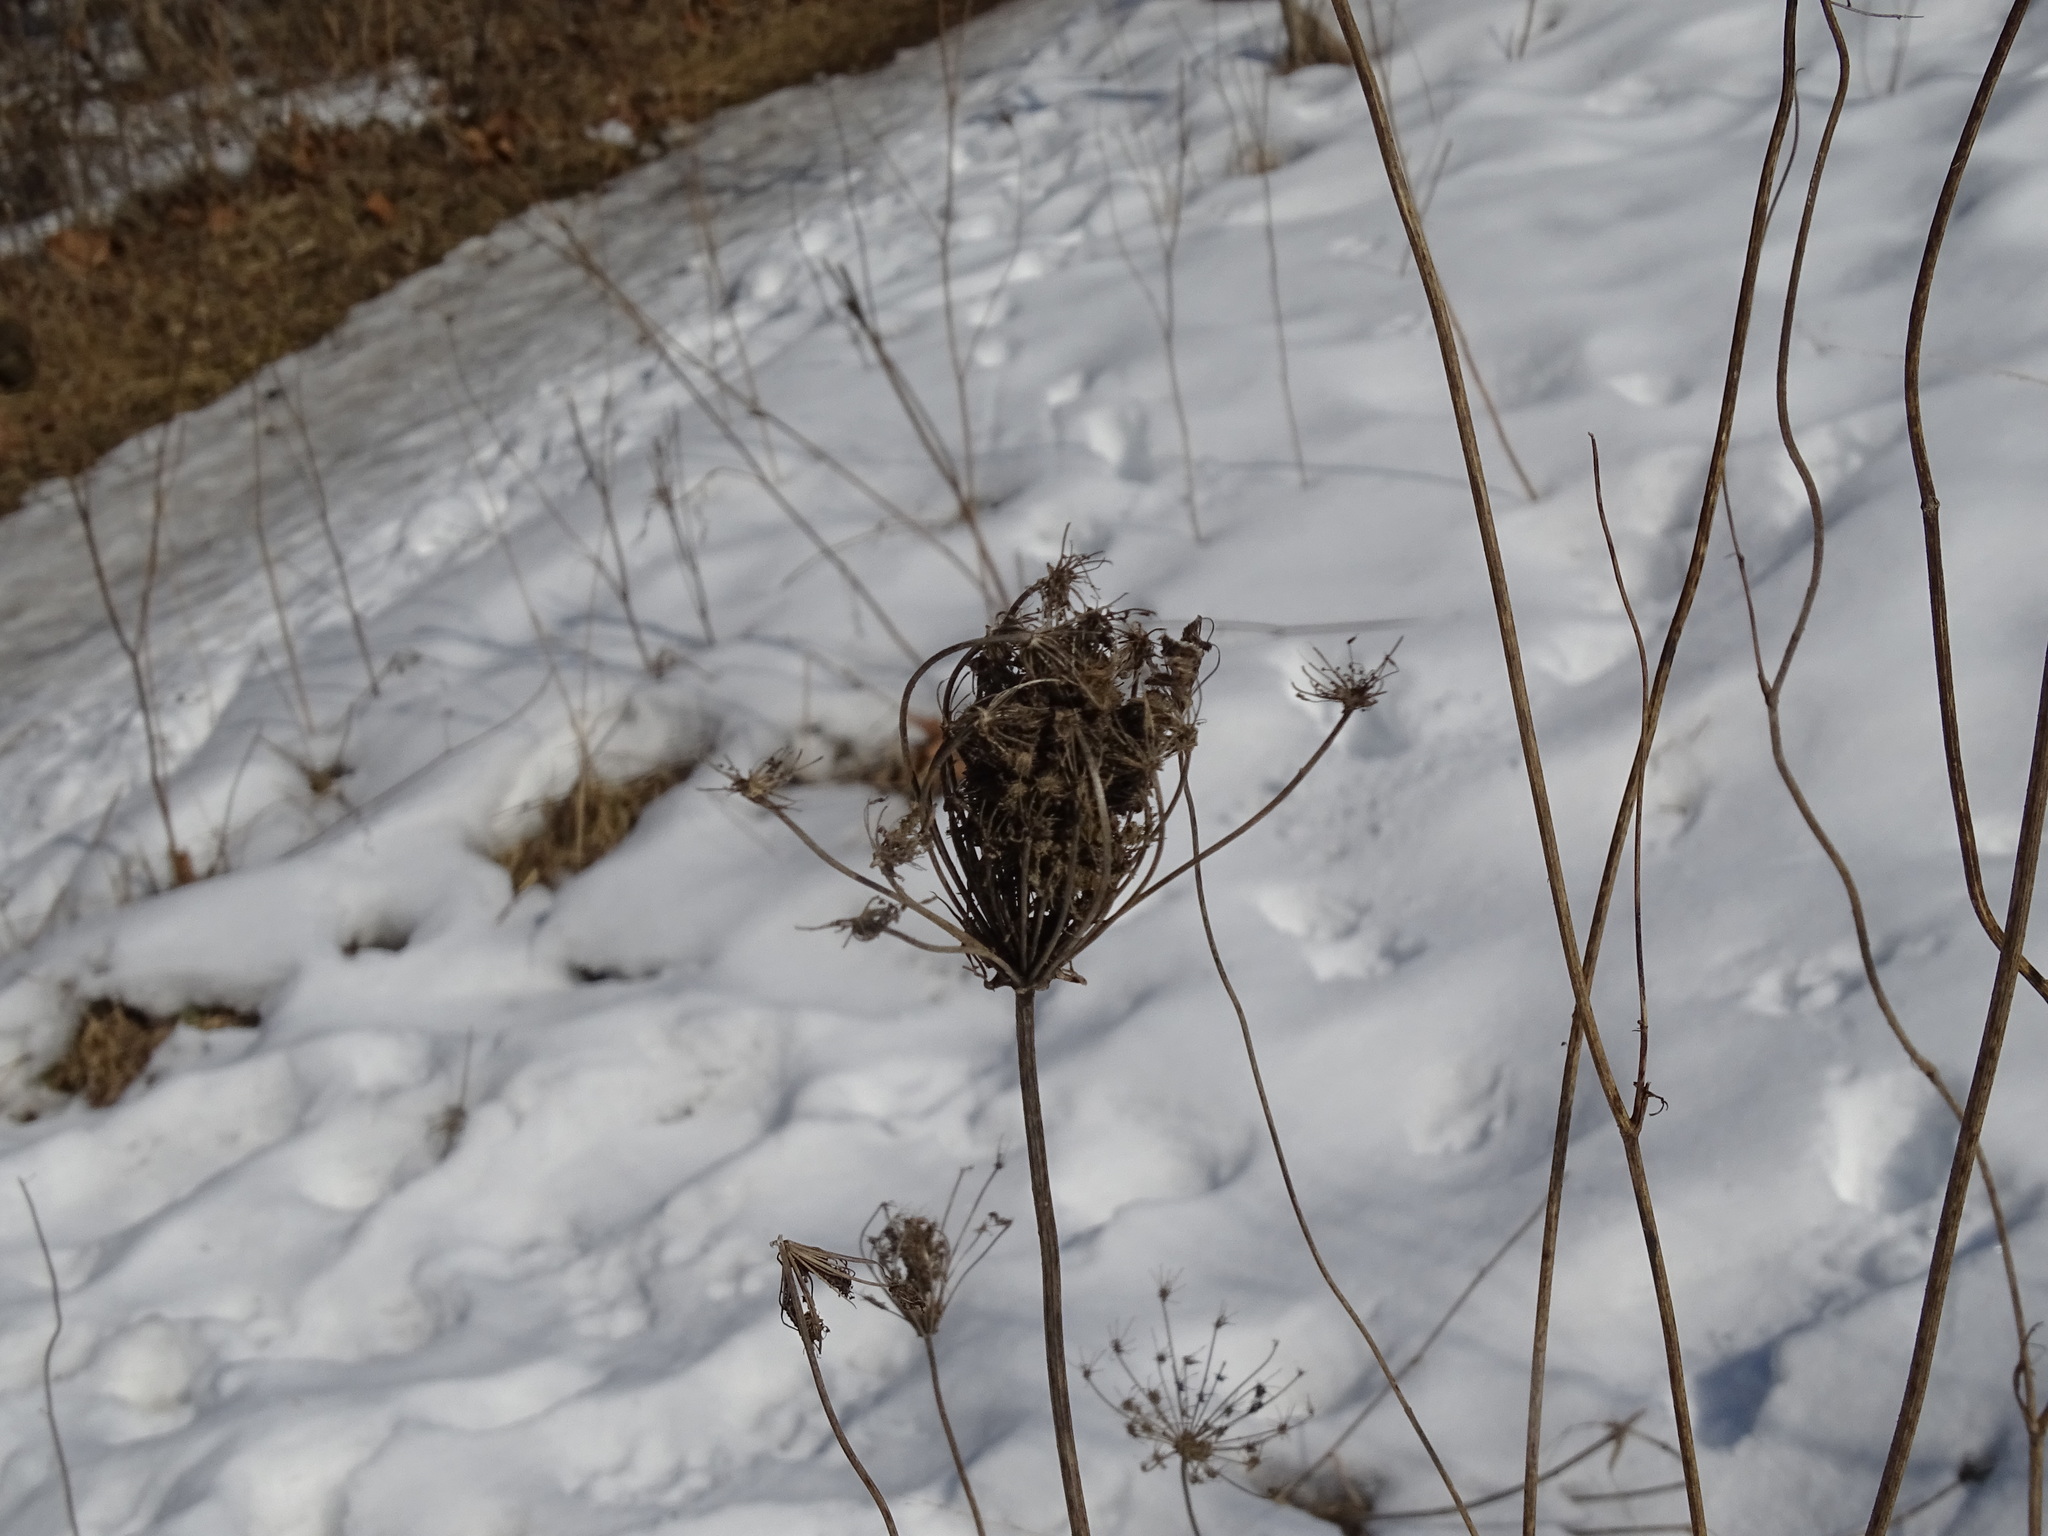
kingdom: Plantae
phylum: Tracheophyta
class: Magnoliopsida
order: Apiales
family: Apiaceae
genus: Daucus
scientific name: Daucus carota
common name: Wild carrot
